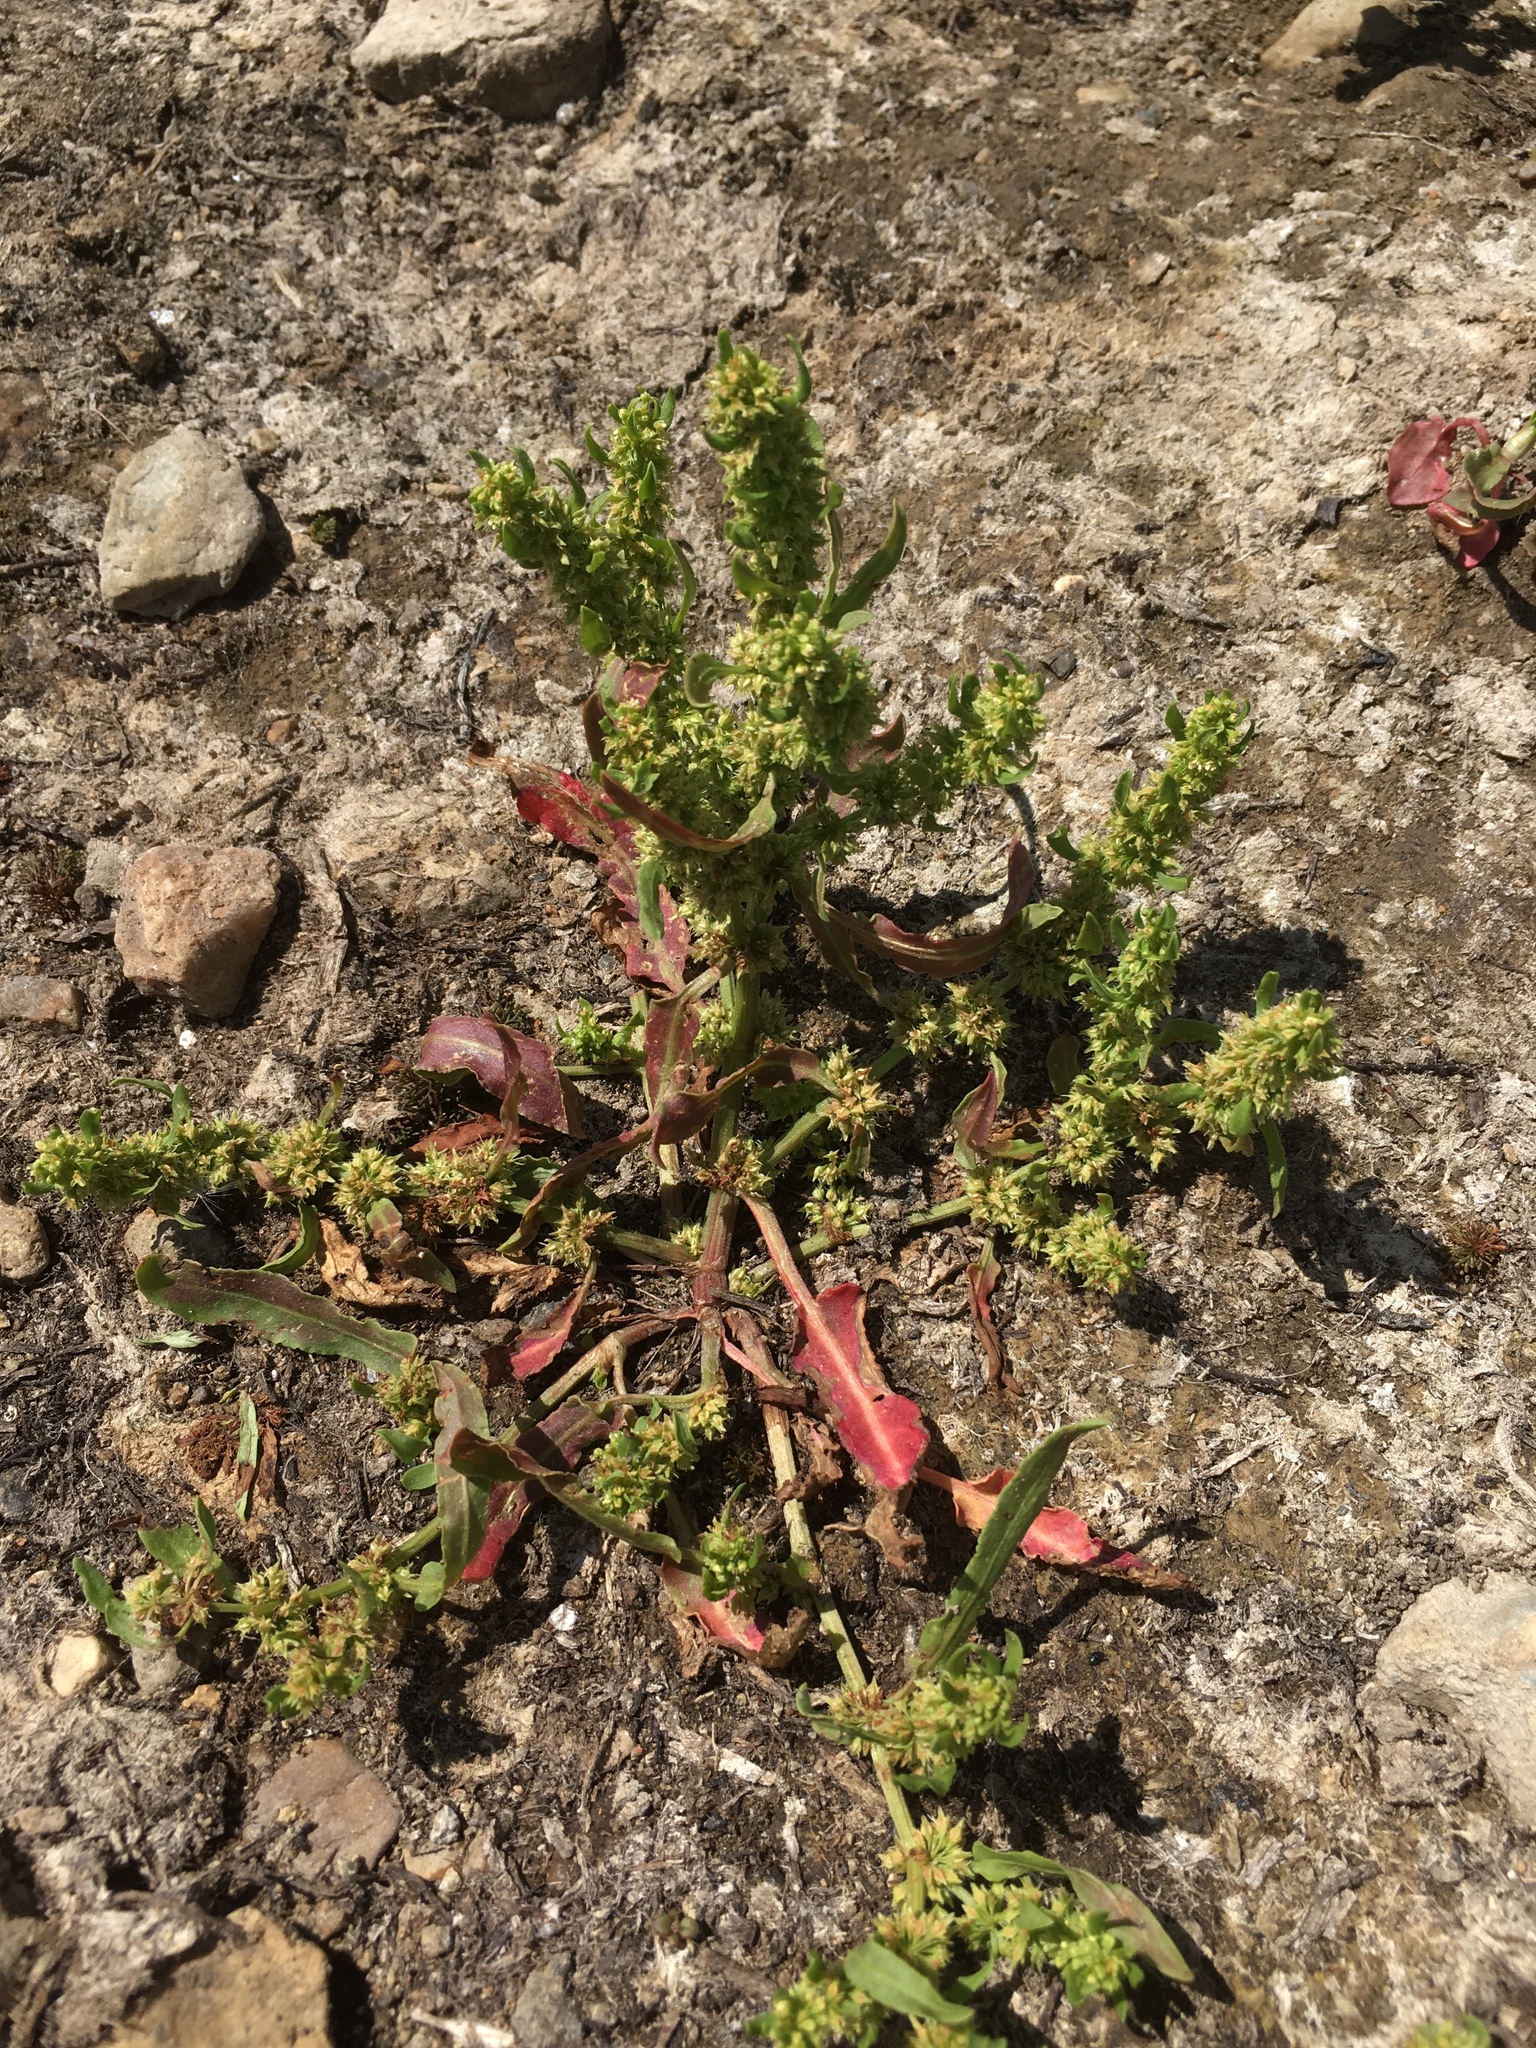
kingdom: Plantae
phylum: Tracheophyta
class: Magnoliopsida
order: Caryophyllales
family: Polygonaceae
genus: Rumex
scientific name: Rumex fueginus
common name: American golden dock
